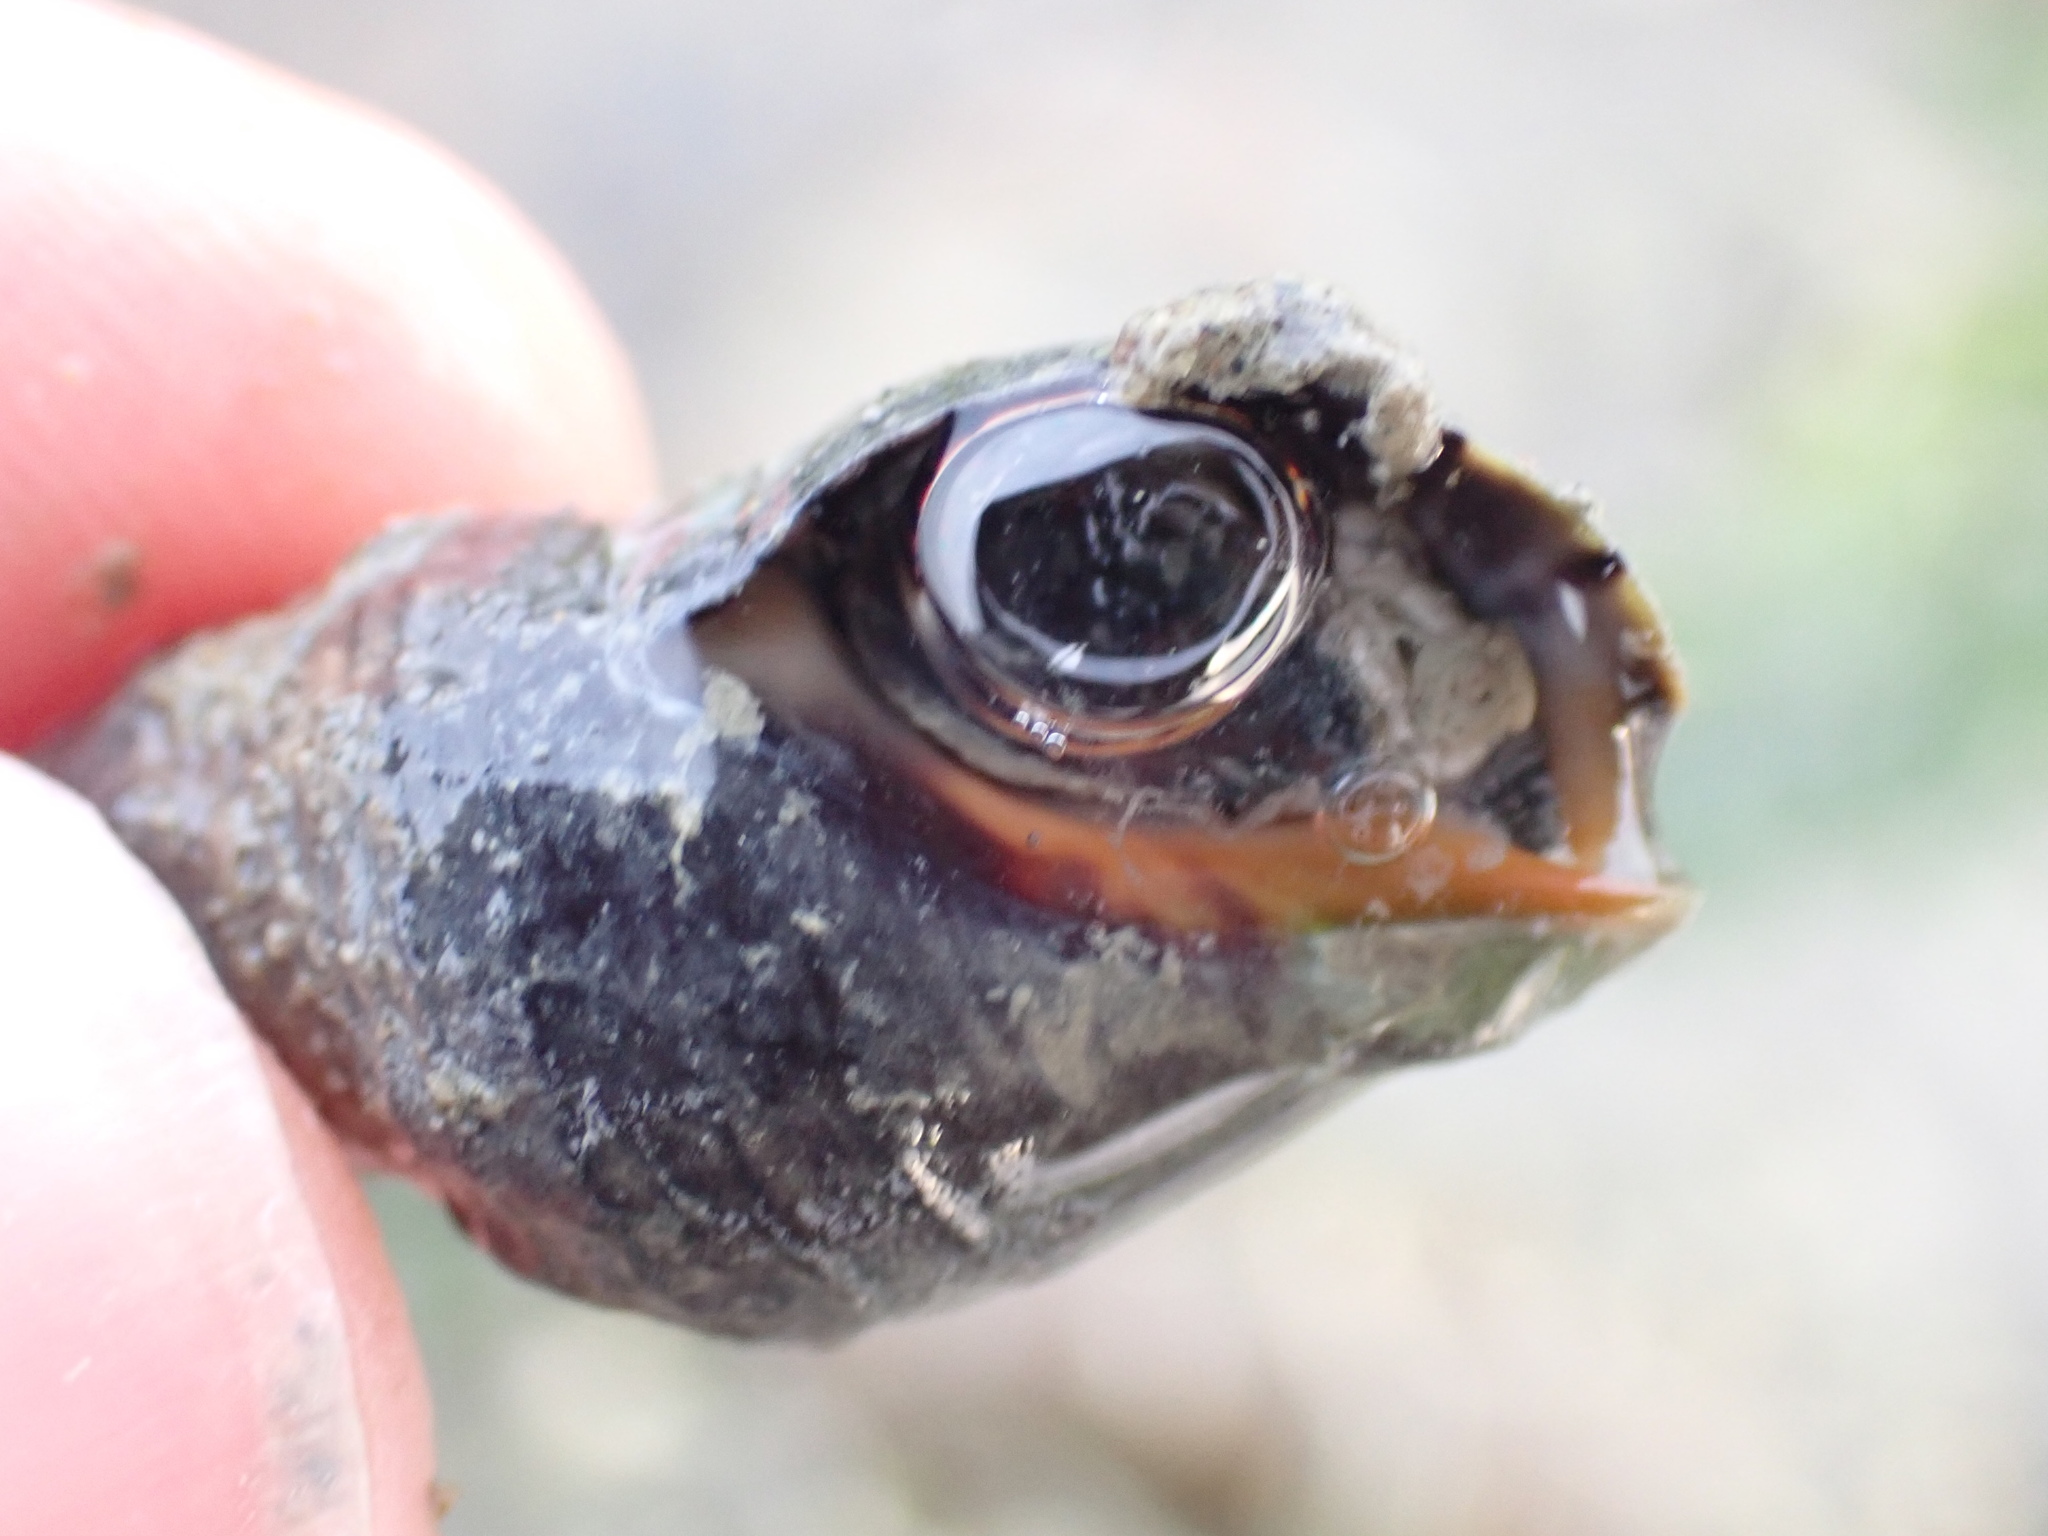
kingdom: Animalia
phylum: Mollusca
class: Gastropoda
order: Neogastropoda
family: Cominellidae
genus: Cominella
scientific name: Cominella virgata
